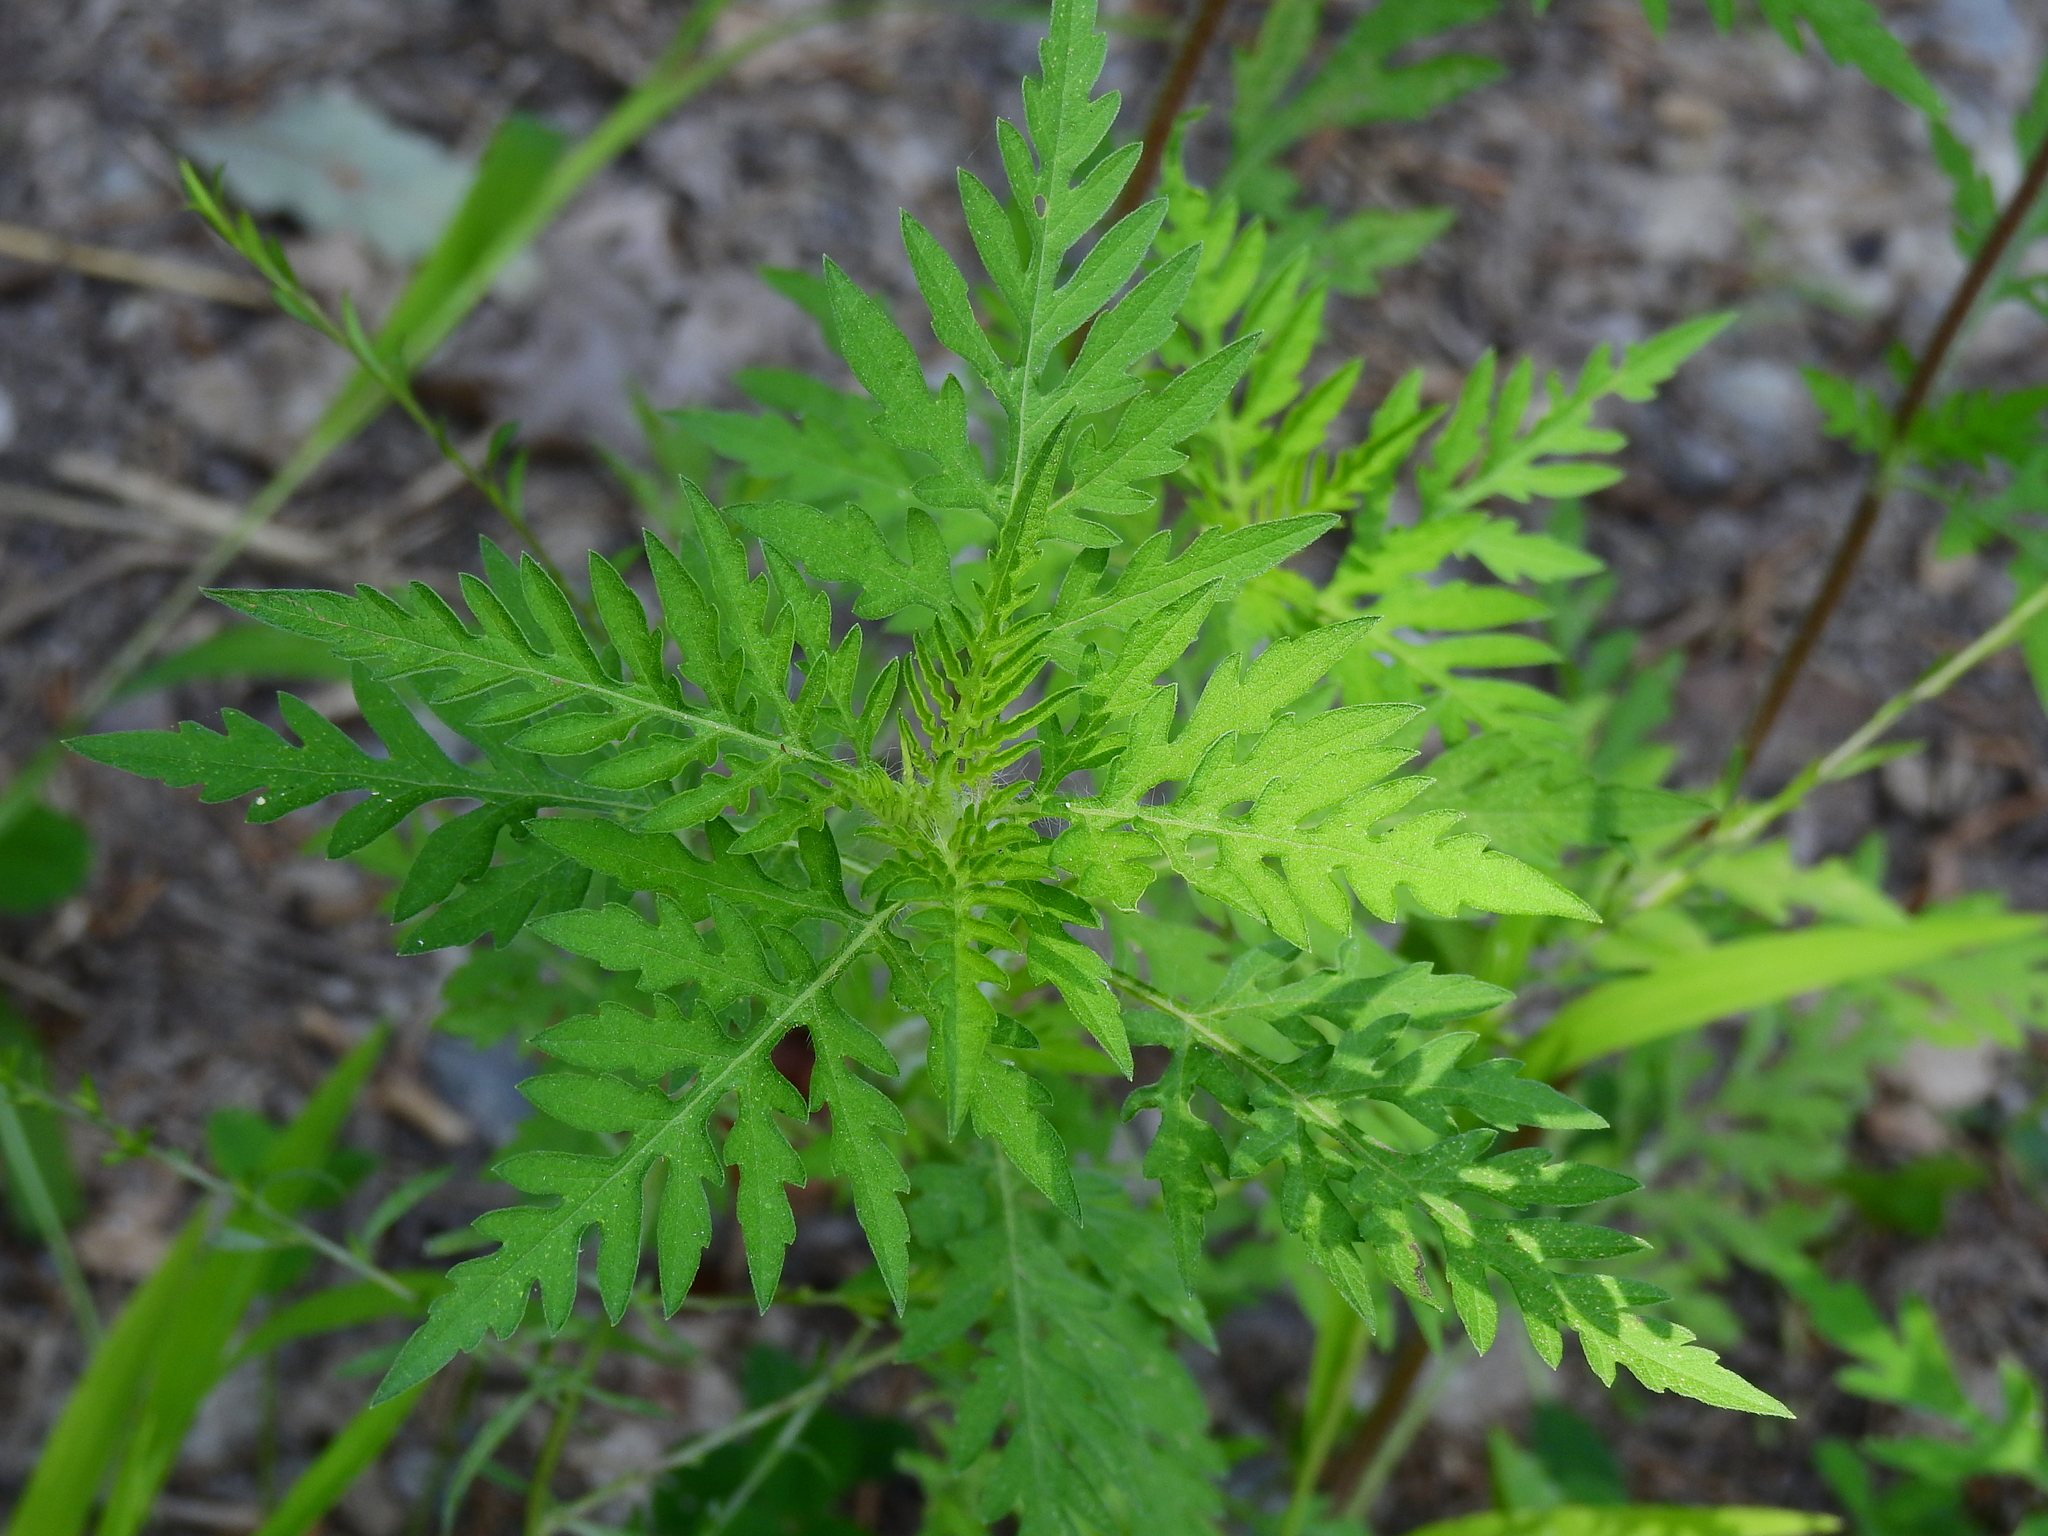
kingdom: Plantae
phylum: Tracheophyta
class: Magnoliopsida
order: Asterales
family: Asteraceae
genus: Ambrosia
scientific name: Ambrosia artemisiifolia
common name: Annual ragweed
